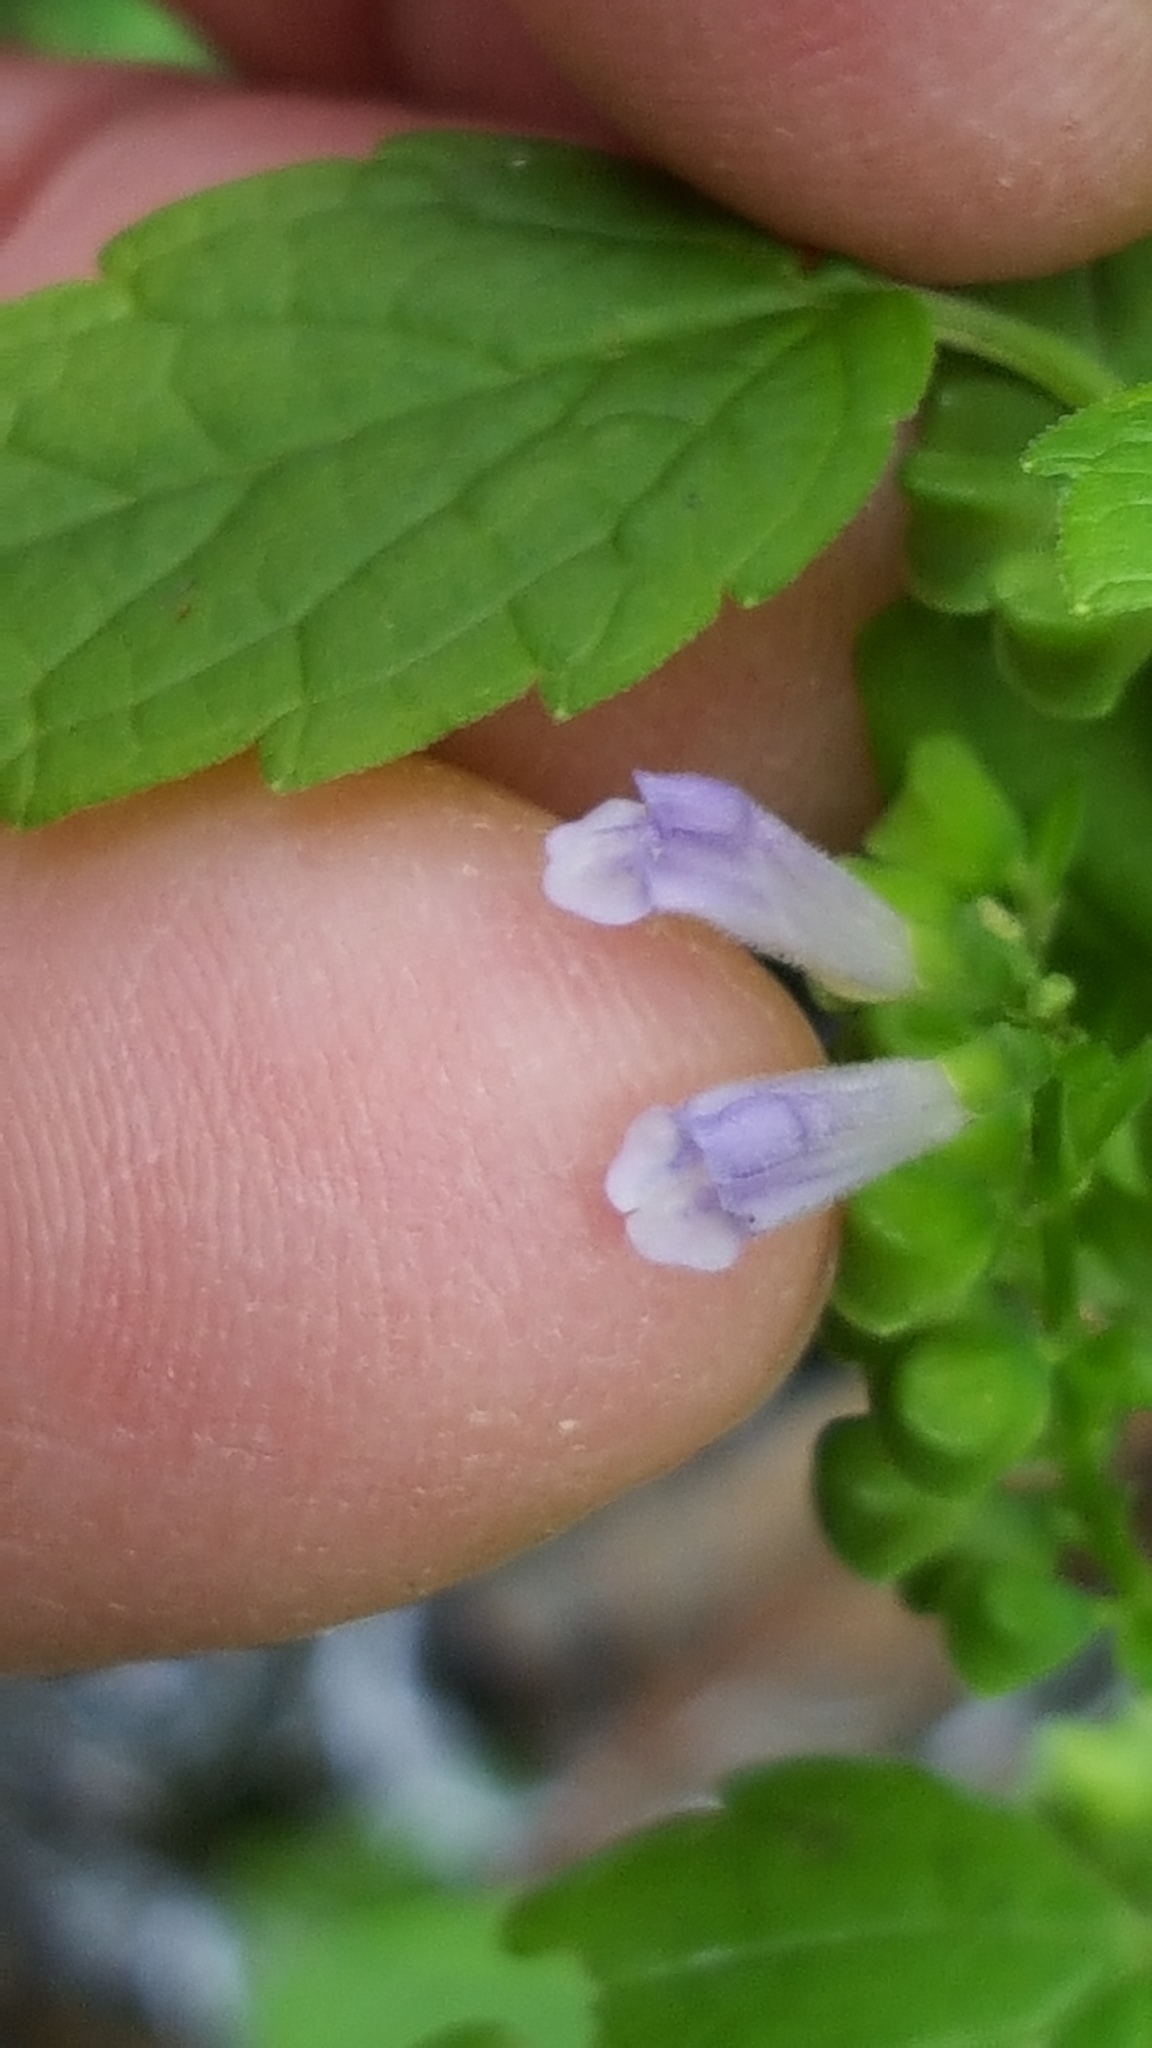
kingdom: Plantae
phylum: Tracheophyta
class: Magnoliopsida
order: Lamiales
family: Lamiaceae
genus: Scutellaria
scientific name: Scutellaria lateriflora
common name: Blue skullcap
